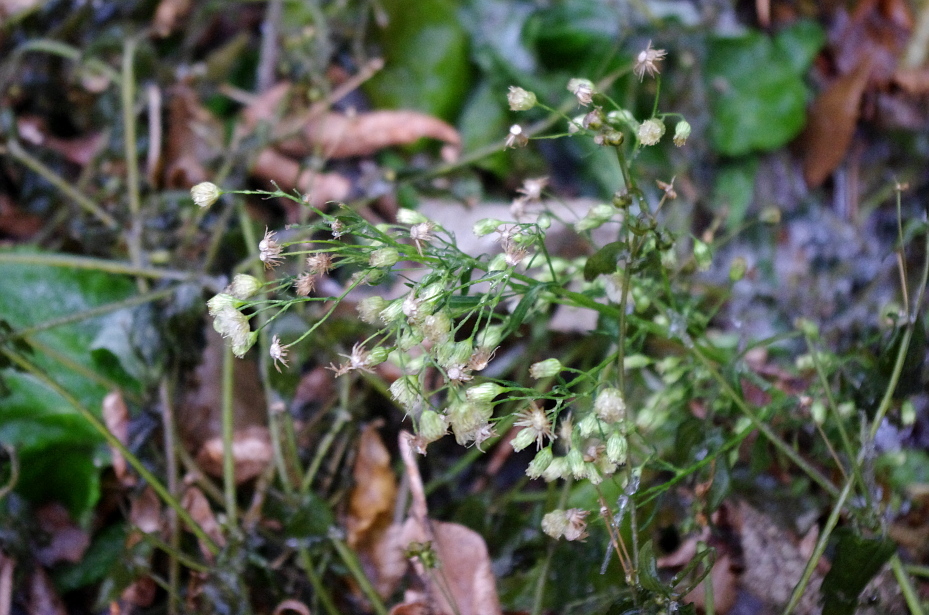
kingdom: Plantae
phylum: Tracheophyta
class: Magnoliopsida
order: Asterales
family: Asteraceae
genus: Erigeron
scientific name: Erigeron canadensis
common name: Canadian fleabane
